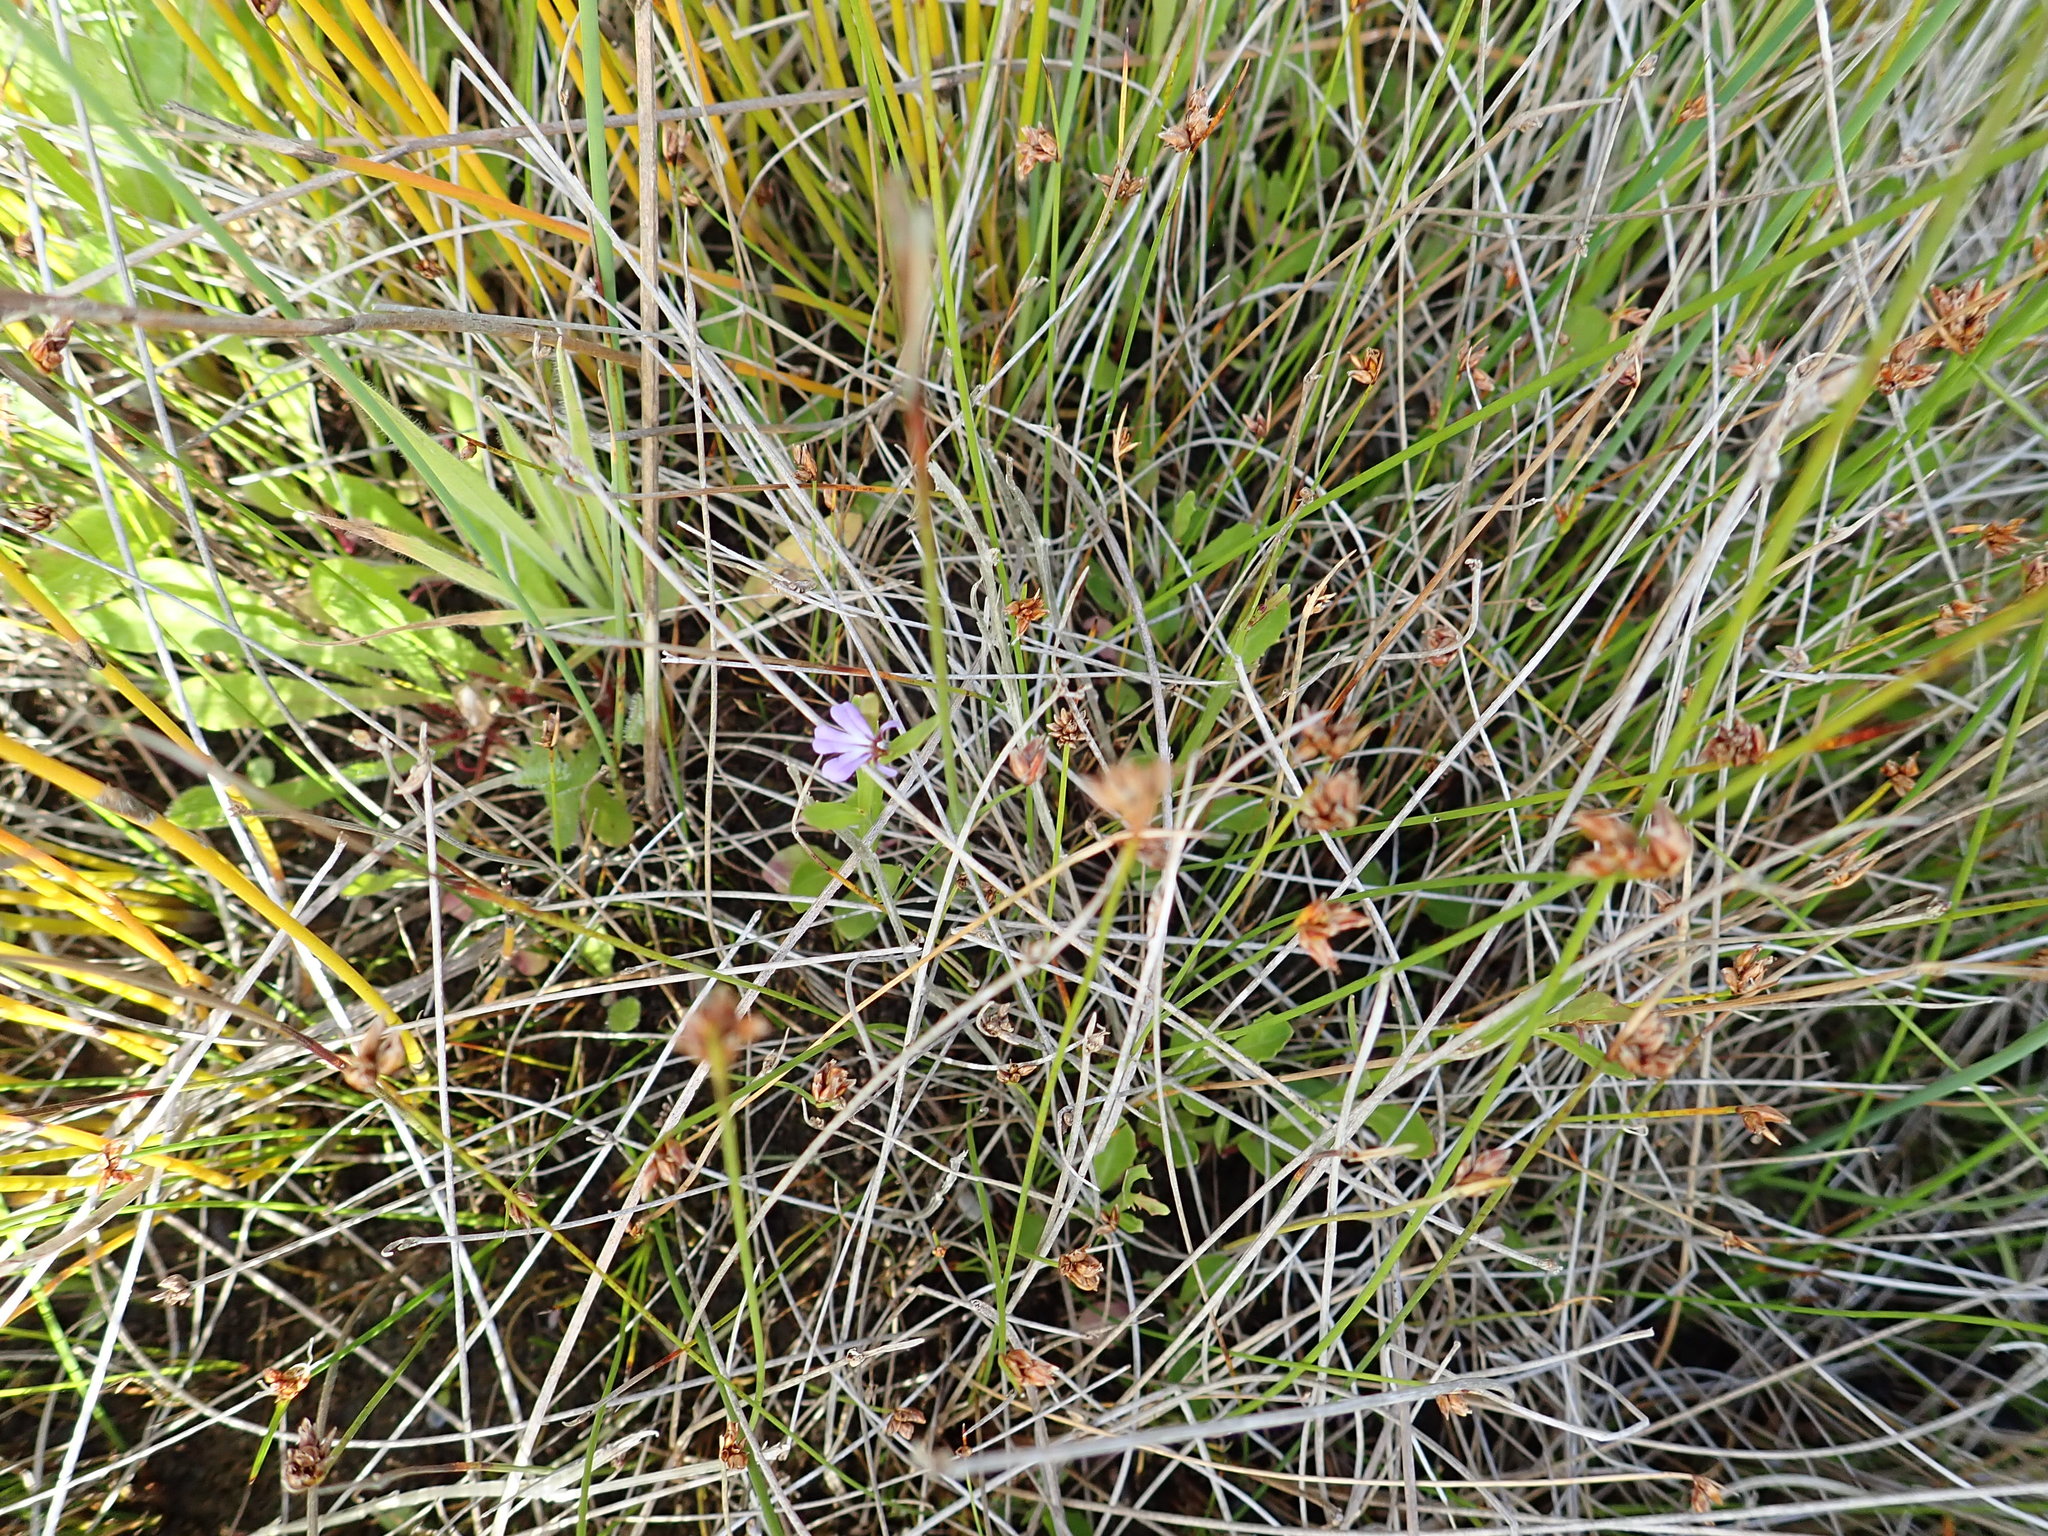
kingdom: Plantae
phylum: Tracheophyta
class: Magnoliopsida
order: Asterales
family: Campanulaceae
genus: Lobelia
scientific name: Lobelia anceps
